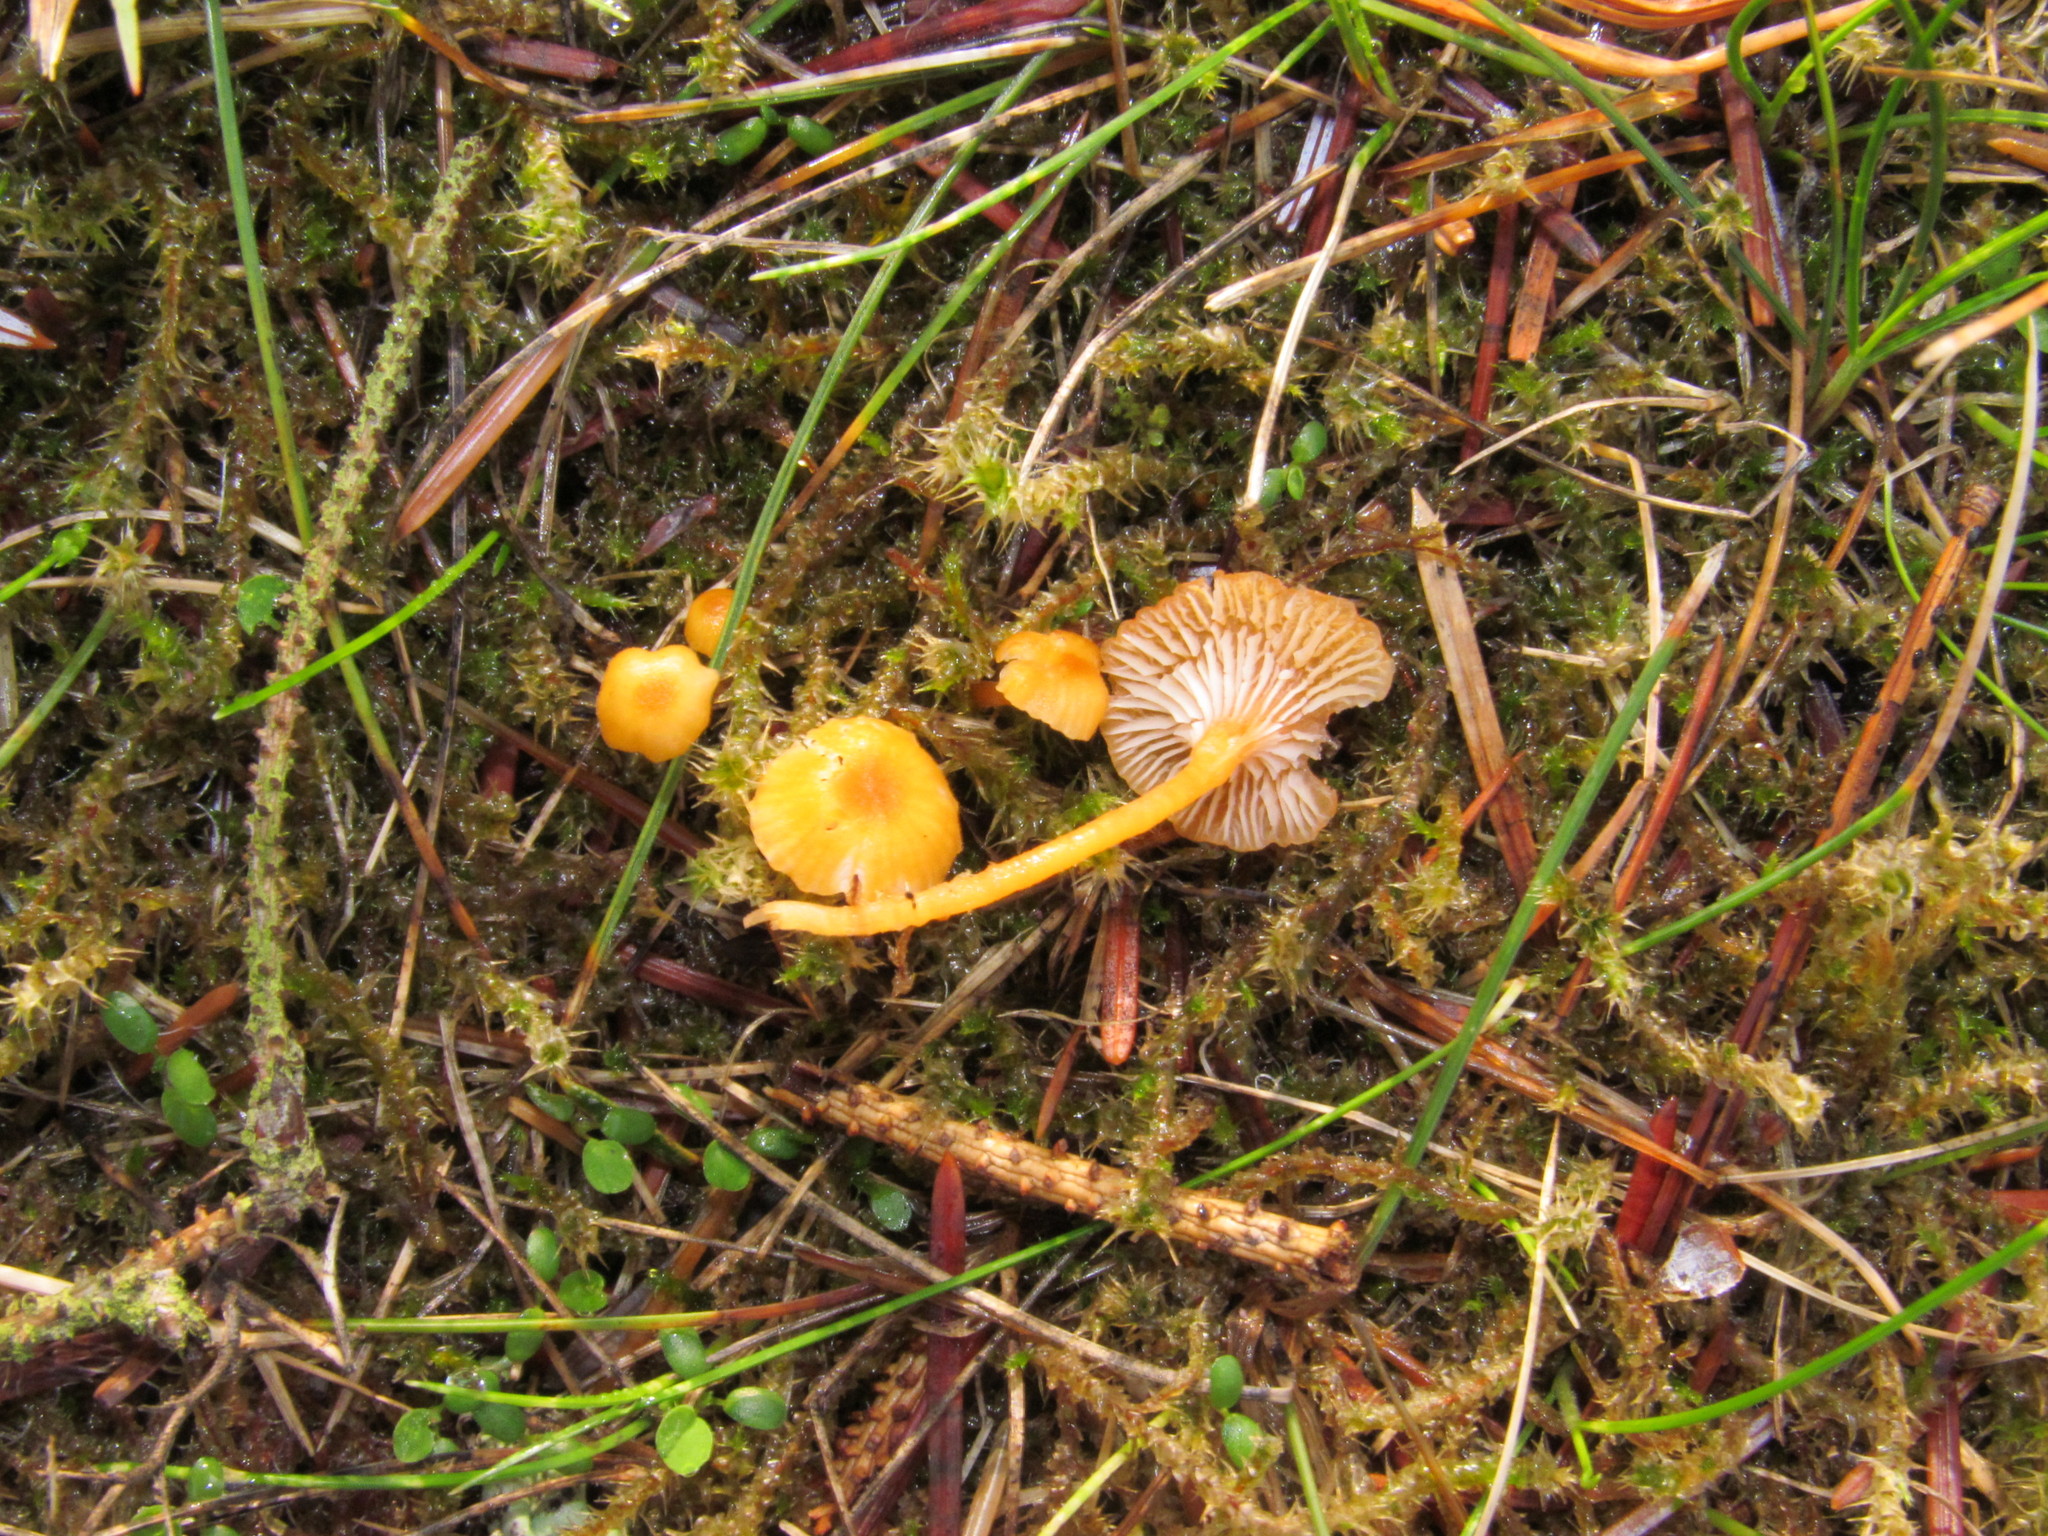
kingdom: Fungi
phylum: Basidiomycota
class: Agaricomycetes
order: Hymenochaetales
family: Rickenellaceae
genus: Rickenella
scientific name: Rickenella fibula
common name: Orange mosscap
